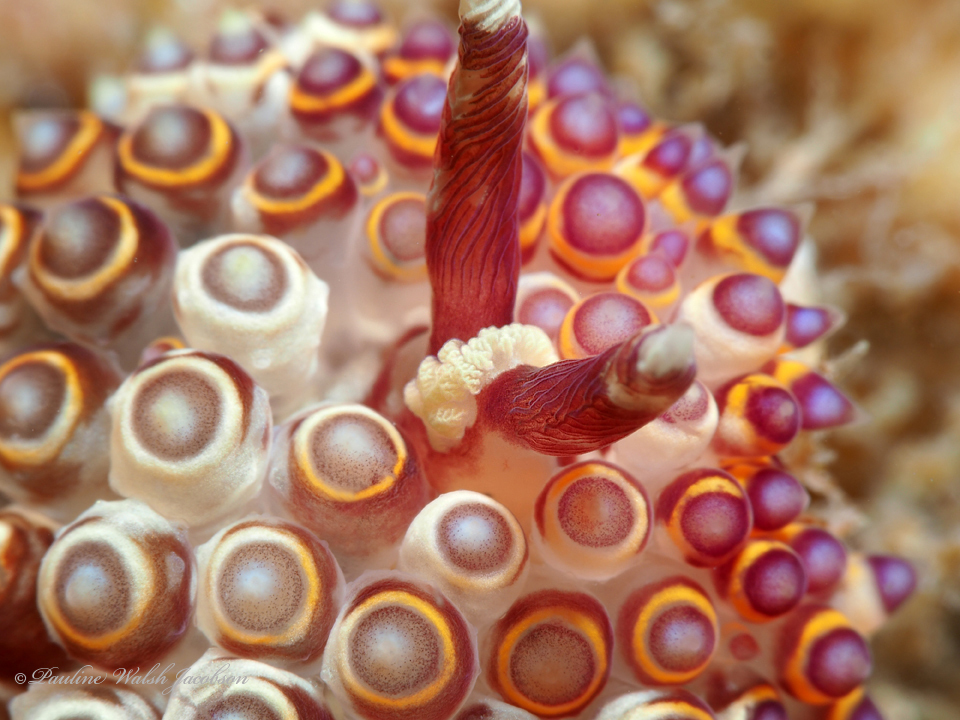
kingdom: Animalia
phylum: Mollusca
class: Gastropoda
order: Nudibranchia
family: Janolidae
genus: Janolus
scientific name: Janolus flavoanulatus
